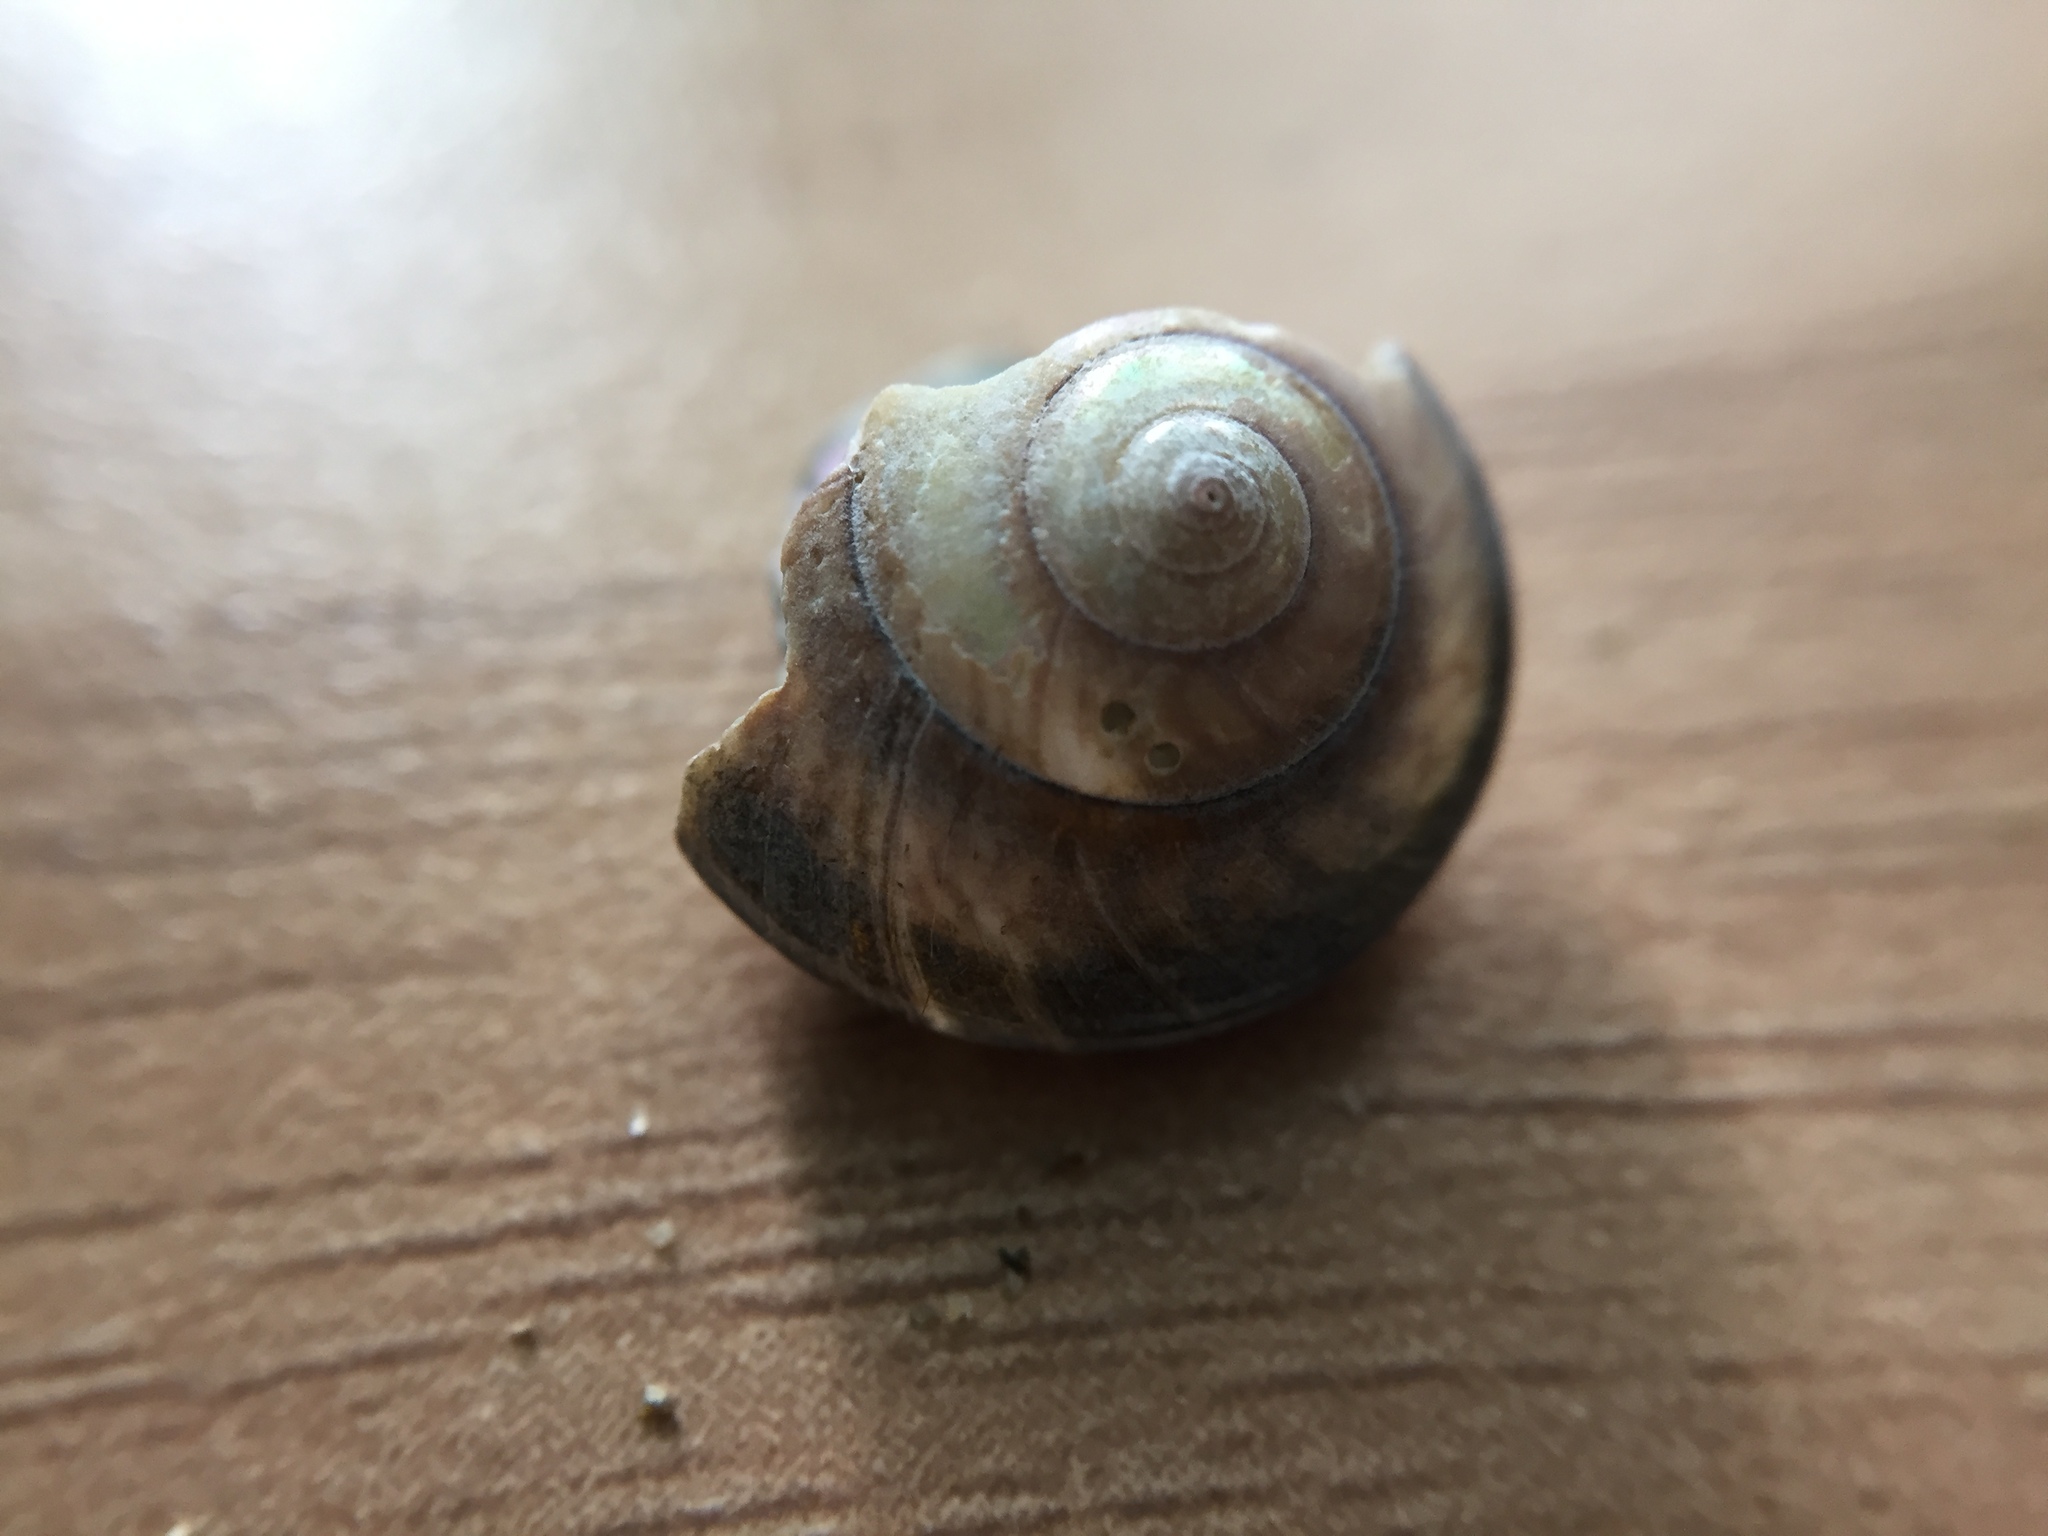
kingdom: Animalia
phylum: Mollusca
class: Gastropoda
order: Trochida
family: Trochidae
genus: Zethalia
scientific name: Zethalia zelandica
